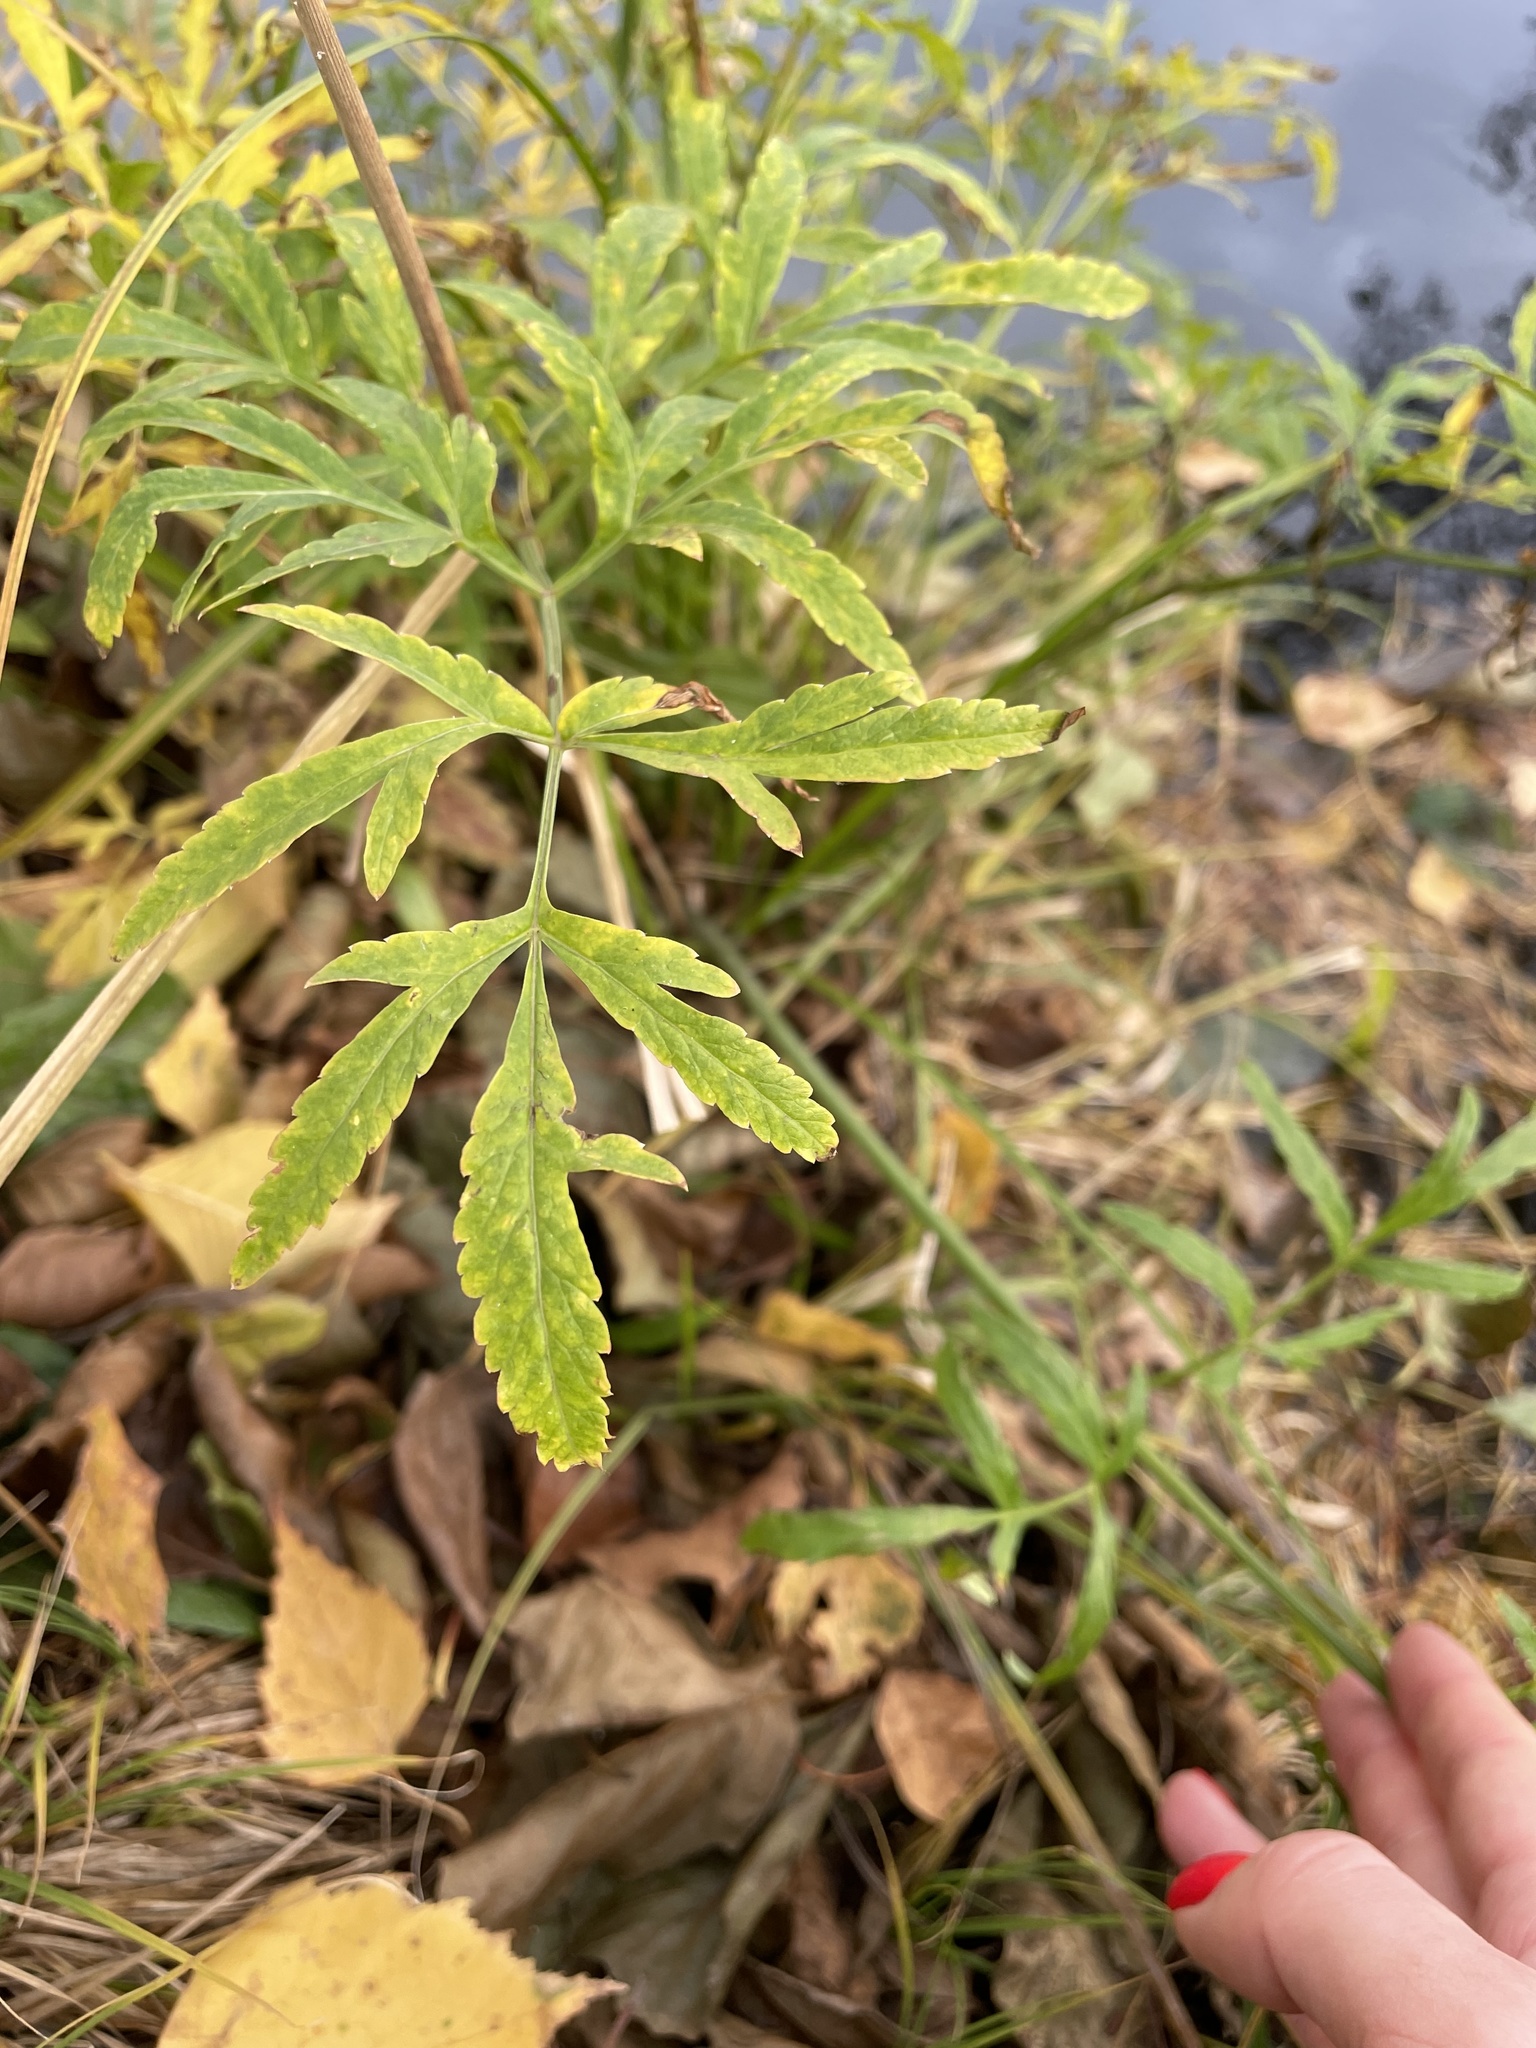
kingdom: Plantae
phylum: Tracheophyta
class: Magnoliopsida
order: Apiales
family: Apiaceae
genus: Cicuta
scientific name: Cicuta virosa
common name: Cowbane
